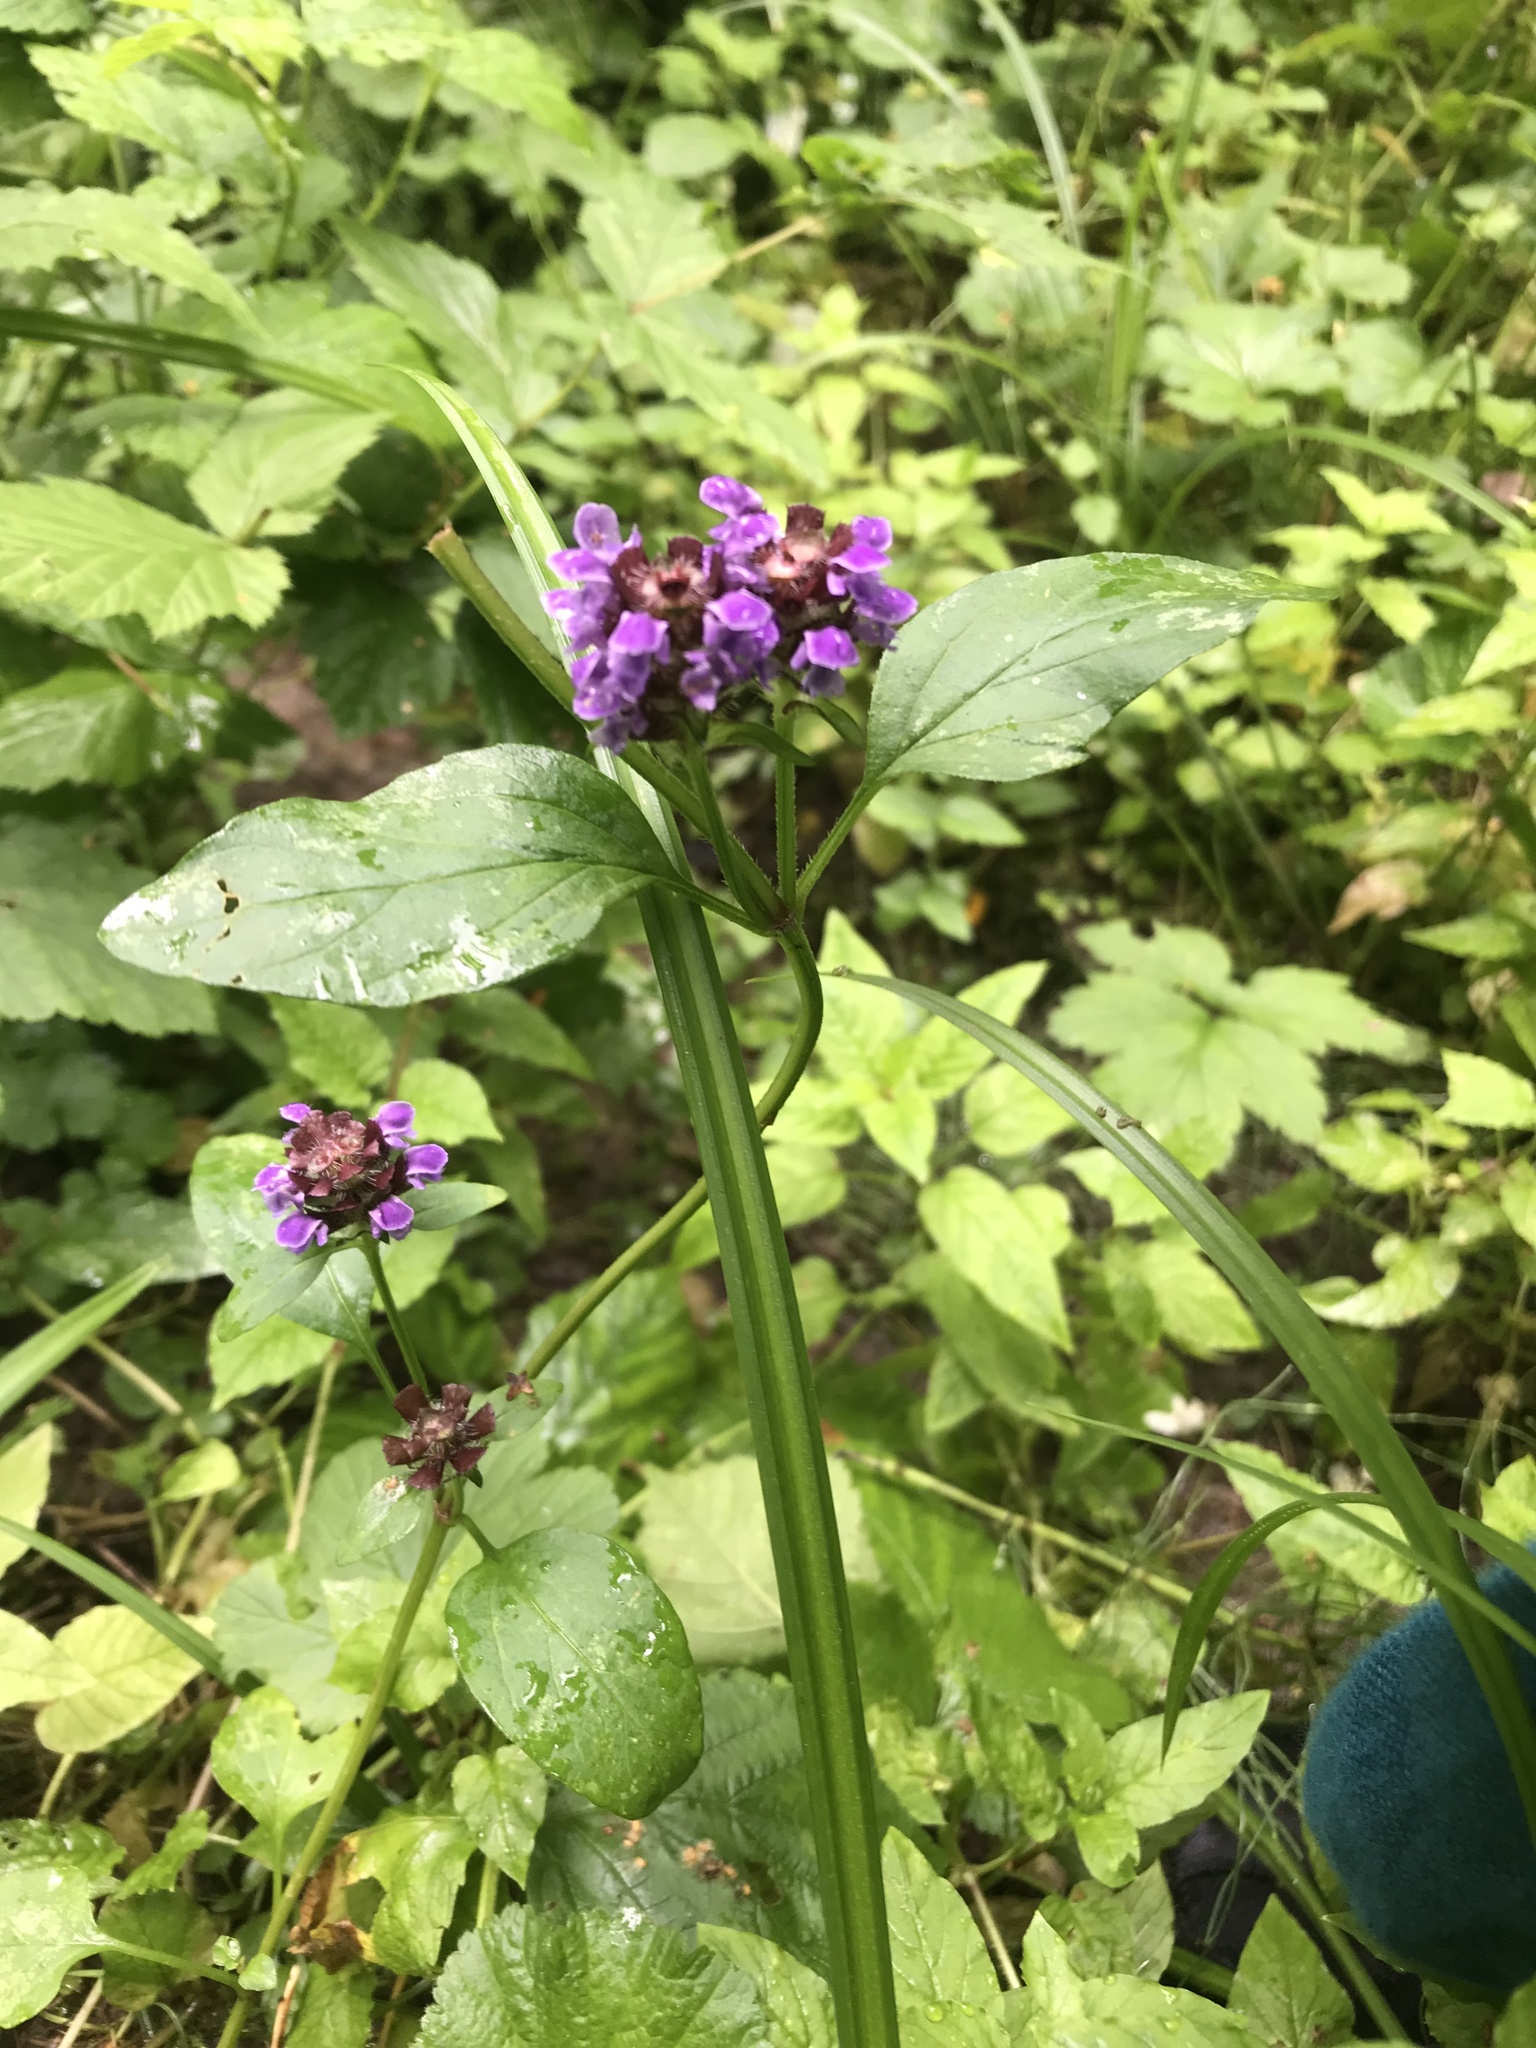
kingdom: Plantae
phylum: Tracheophyta
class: Magnoliopsida
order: Lamiales
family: Lamiaceae
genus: Prunella
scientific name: Prunella vulgaris
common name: Heal-all
